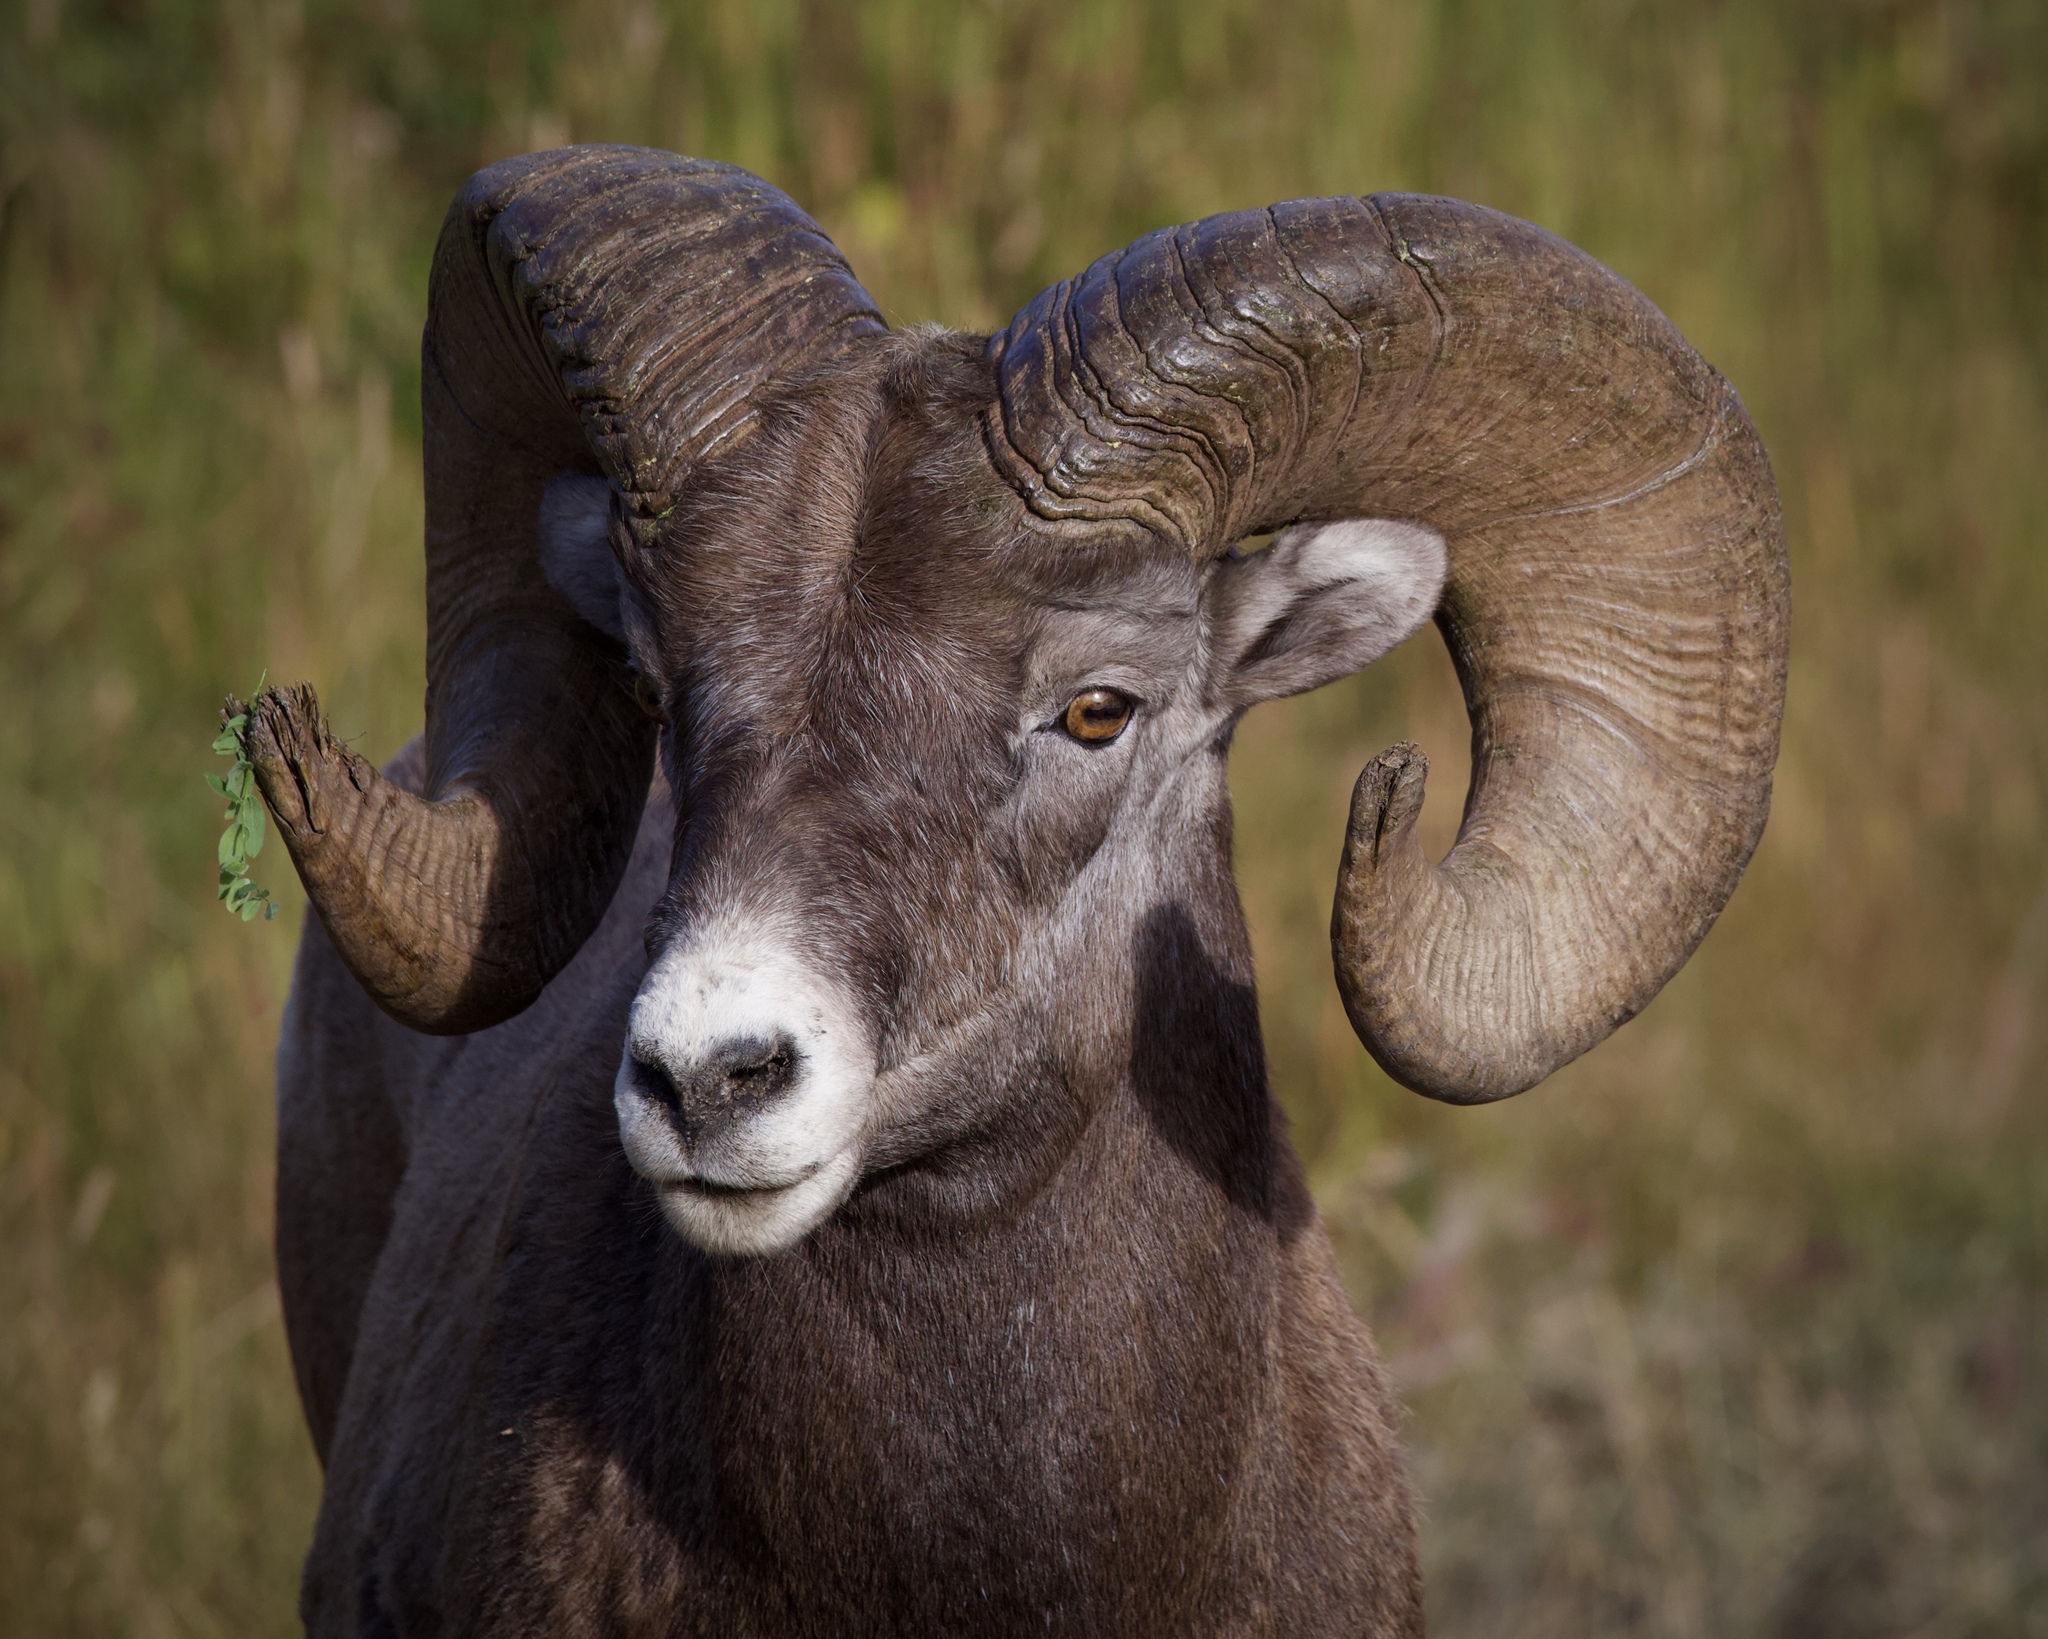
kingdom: Animalia
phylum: Chordata
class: Mammalia
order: Artiodactyla
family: Bovidae
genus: Ovis
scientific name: Ovis canadensis
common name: Bighorn sheep
